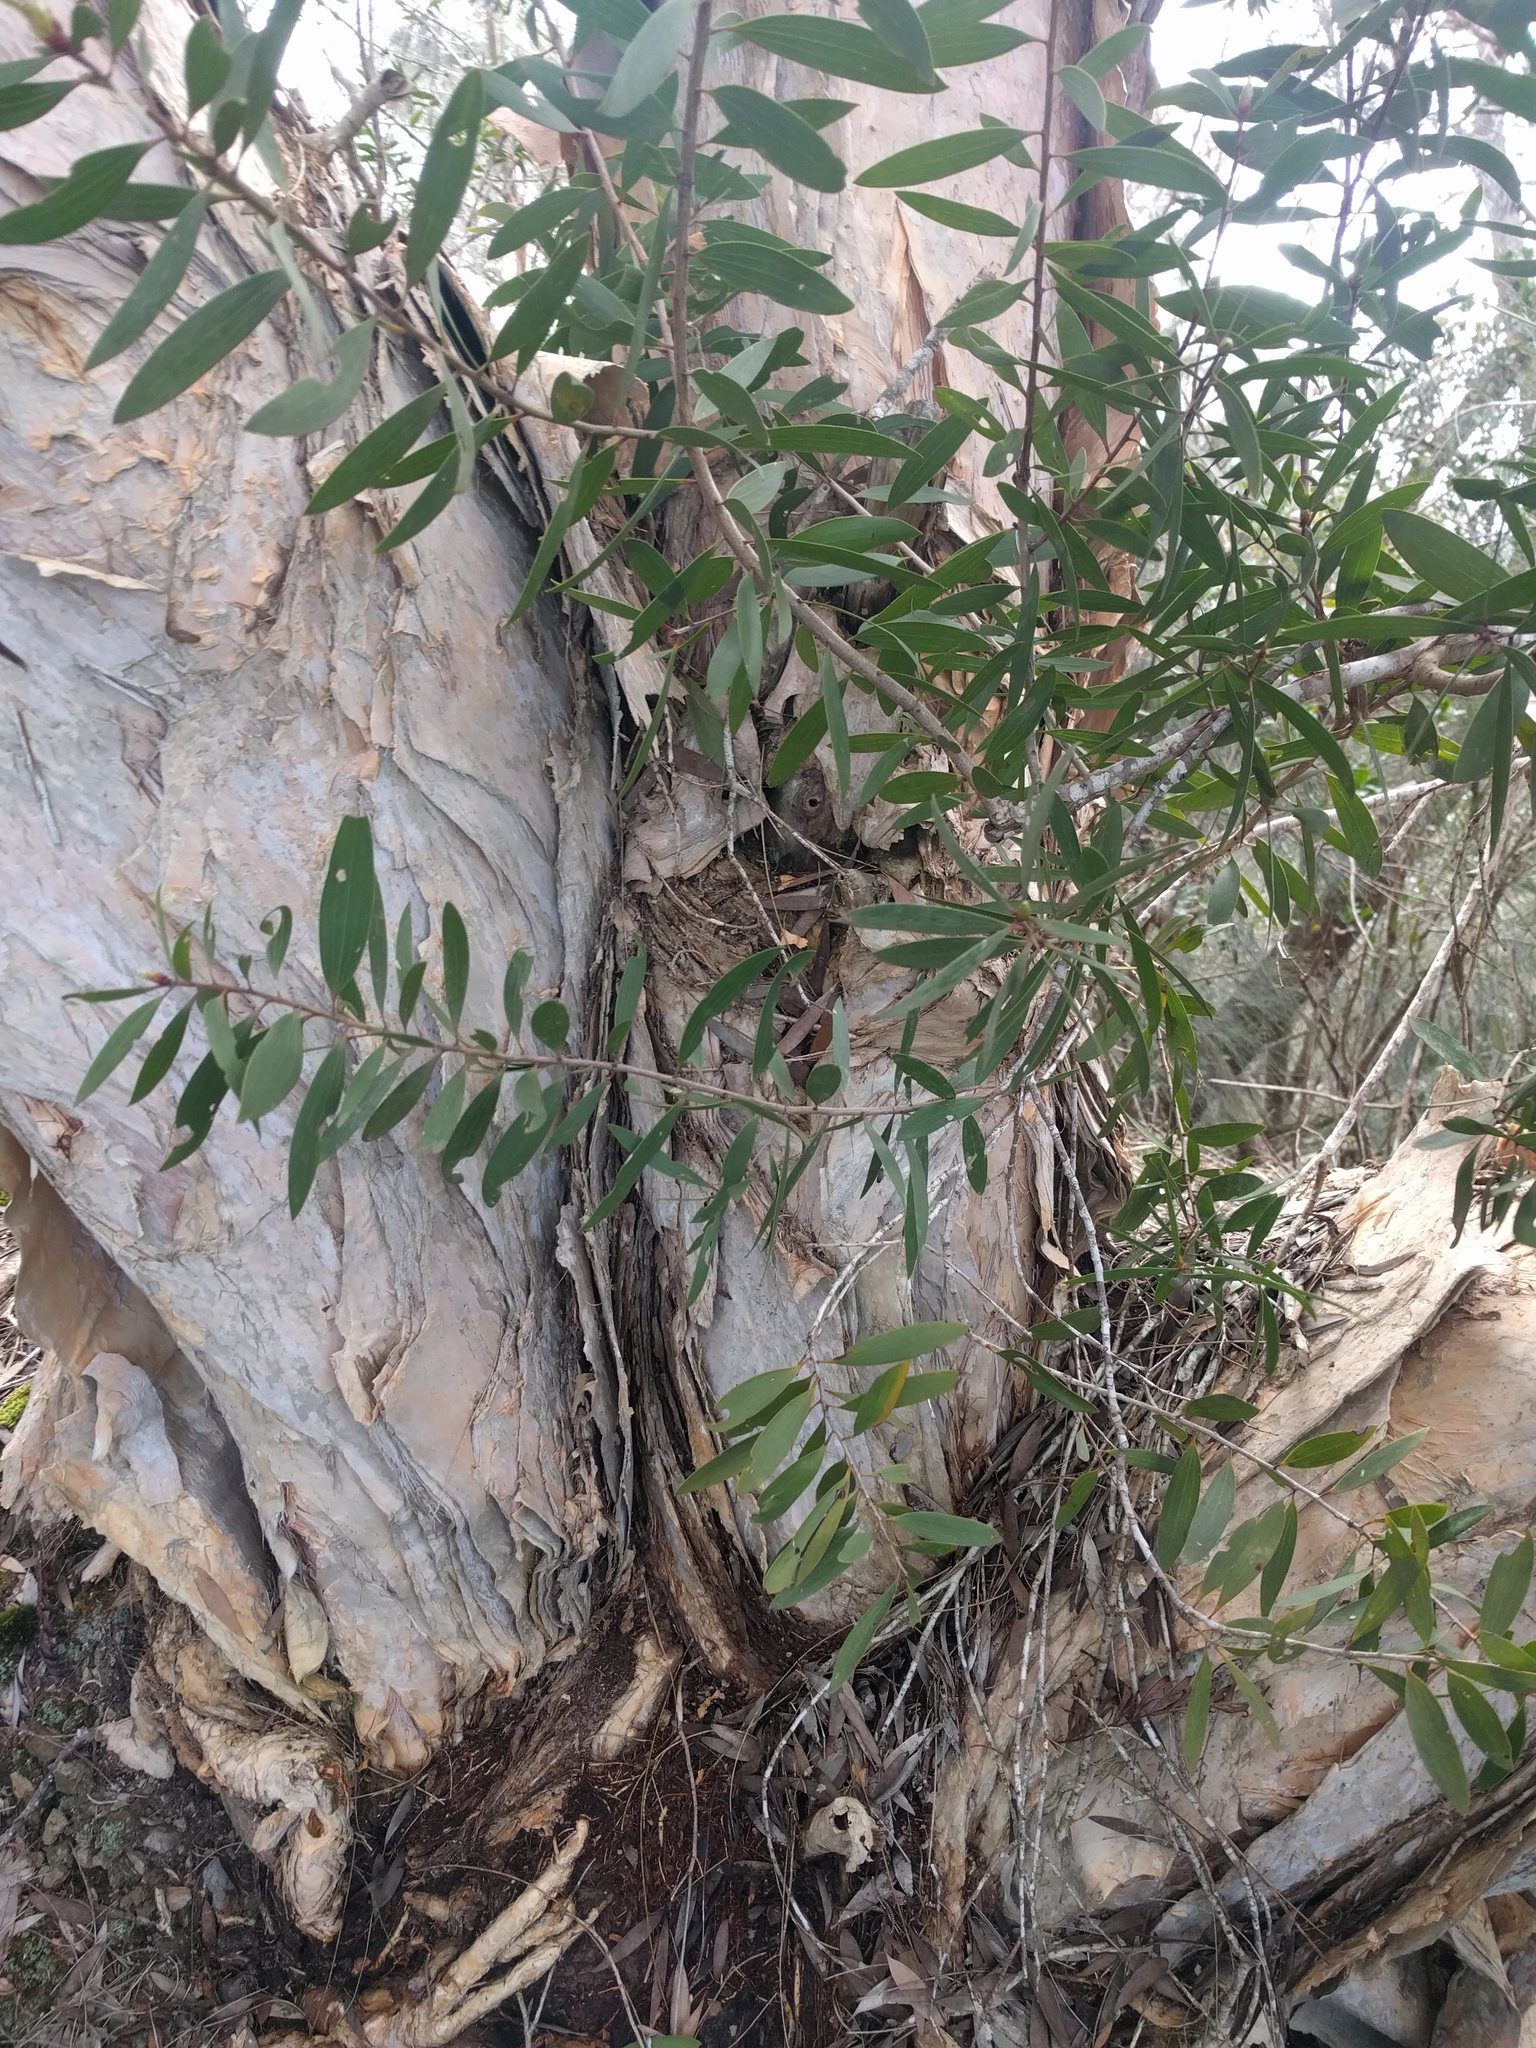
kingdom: Plantae
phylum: Tracheophyta
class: Magnoliopsida
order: Myrtales
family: Myrtaceae
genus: Melaleuca
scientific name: Melaleuca quinquenervia
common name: Punktree
